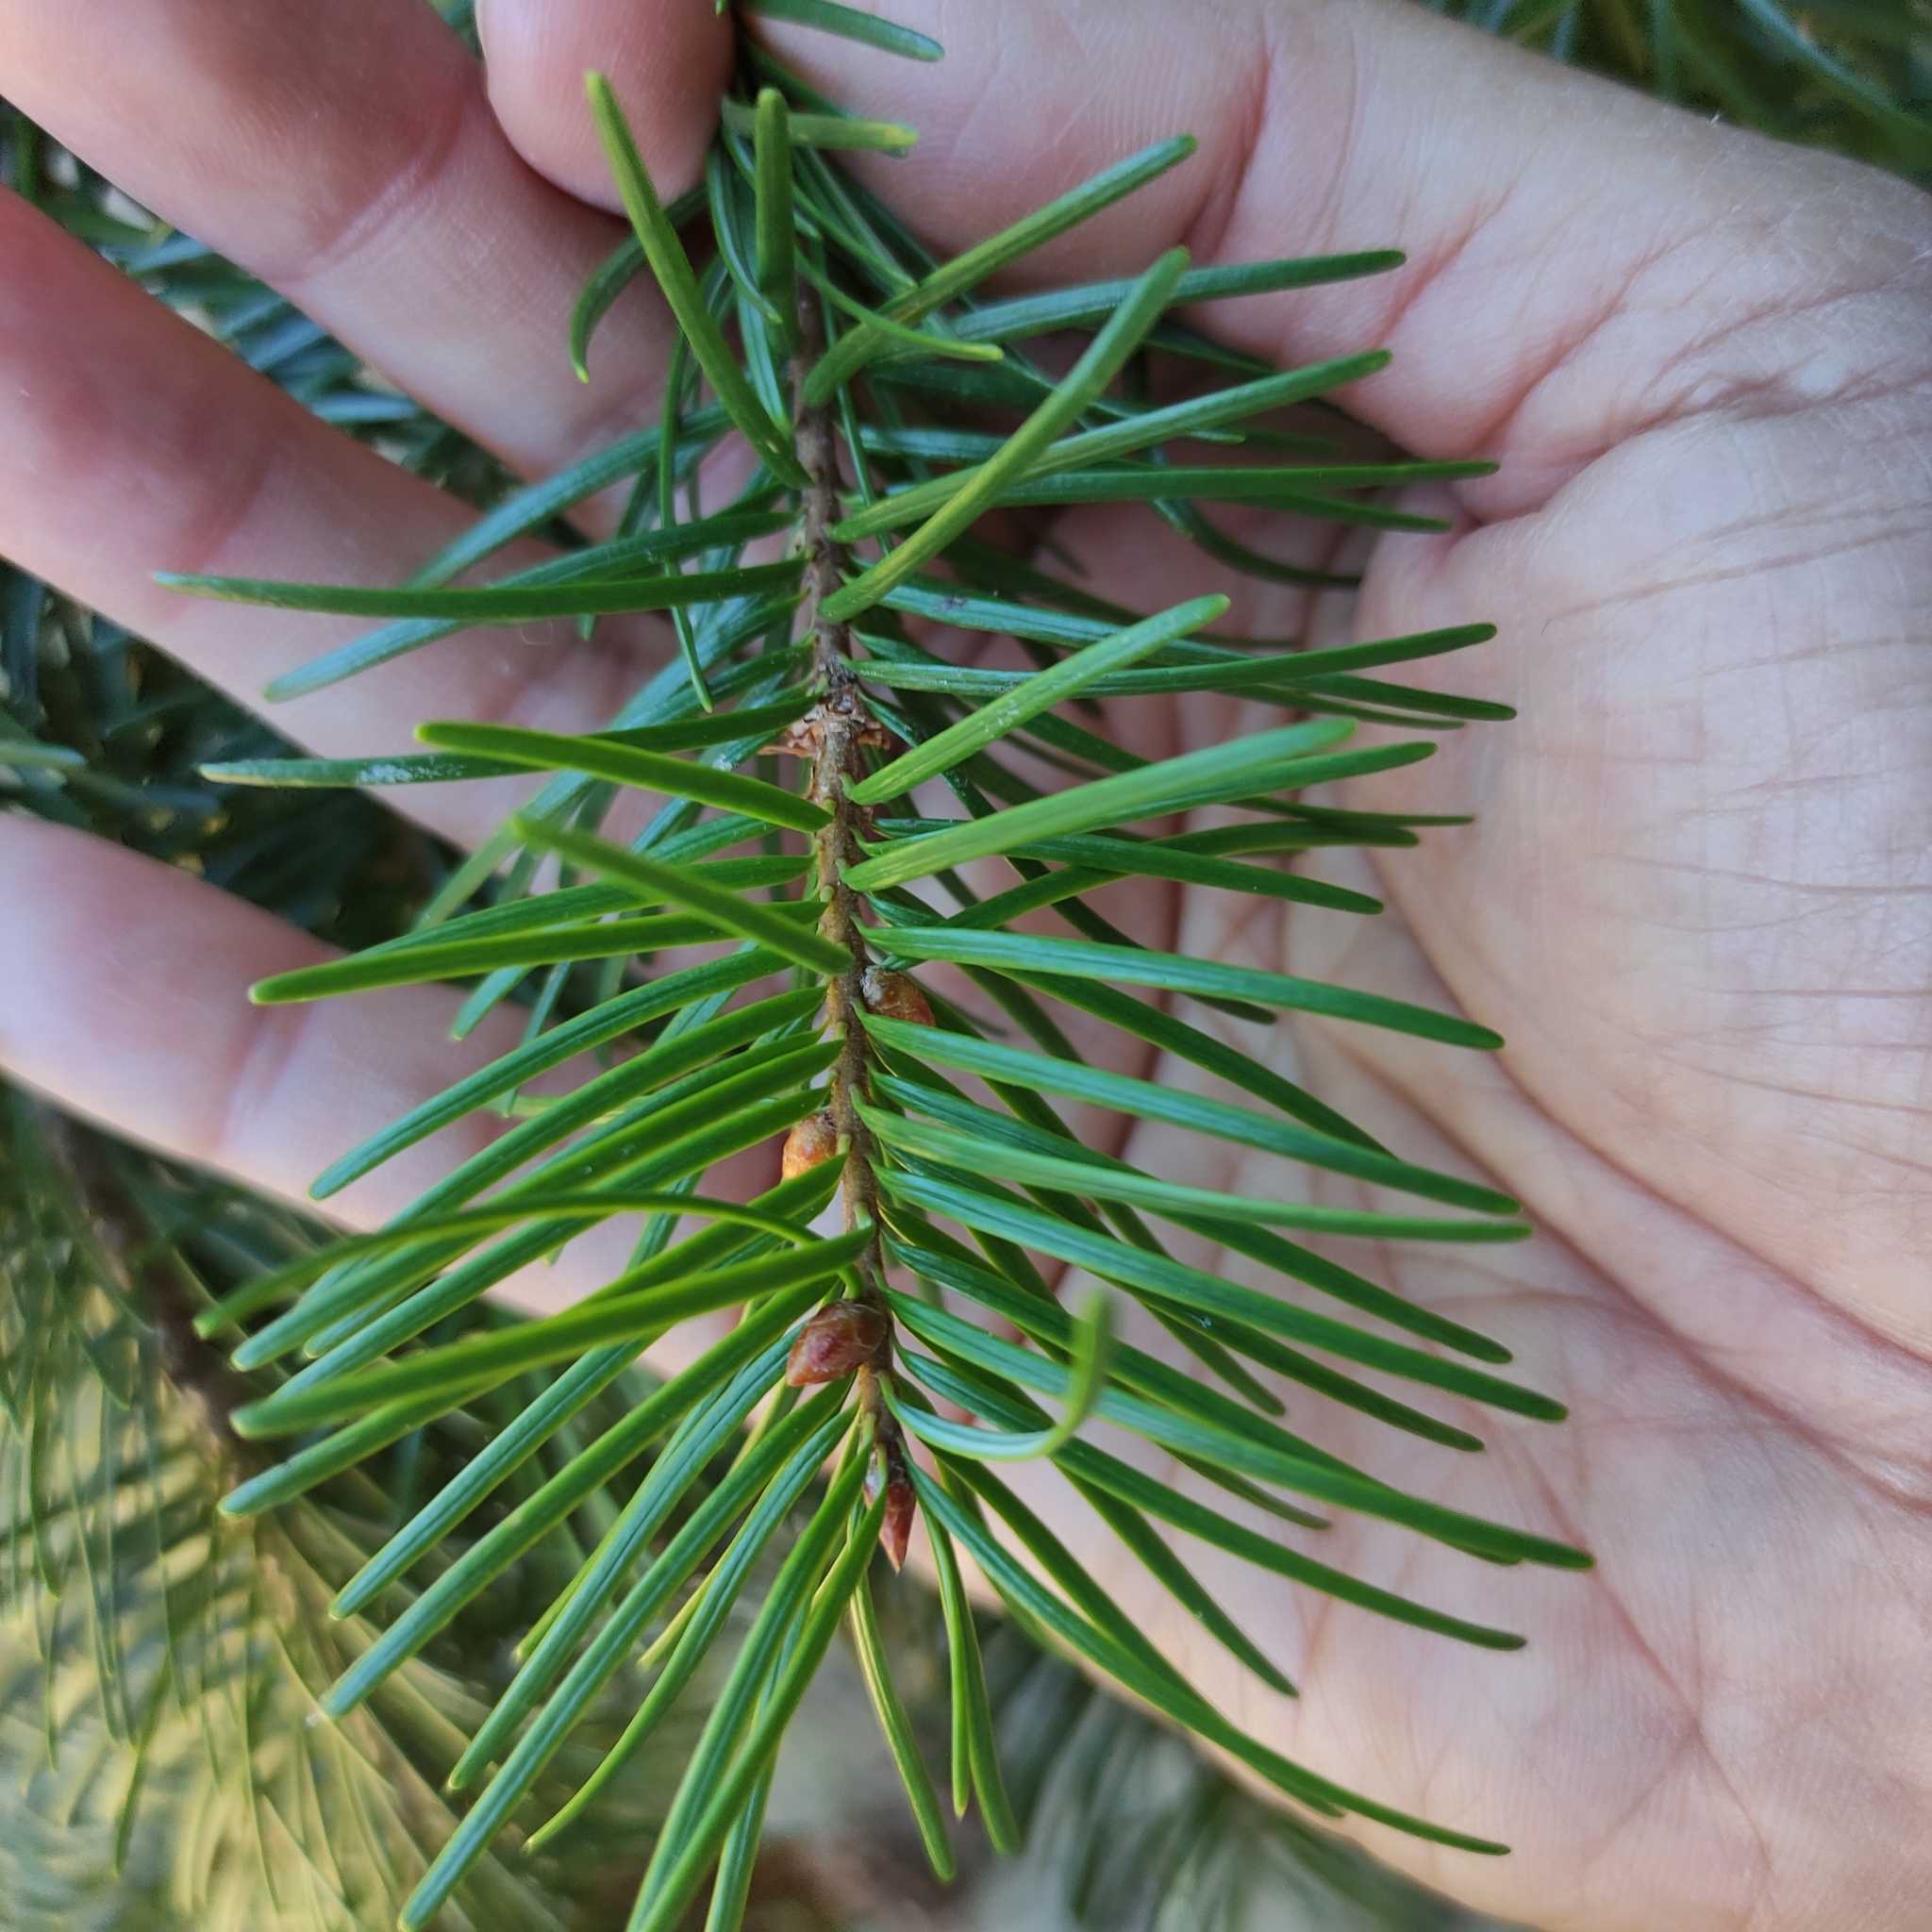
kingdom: Plantae
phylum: Tracheophyta
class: Pinopsida
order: Pinales
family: Pinaceae
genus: Pseudotsuga
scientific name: Pseudotsuga menziesii
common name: Douglas fir
